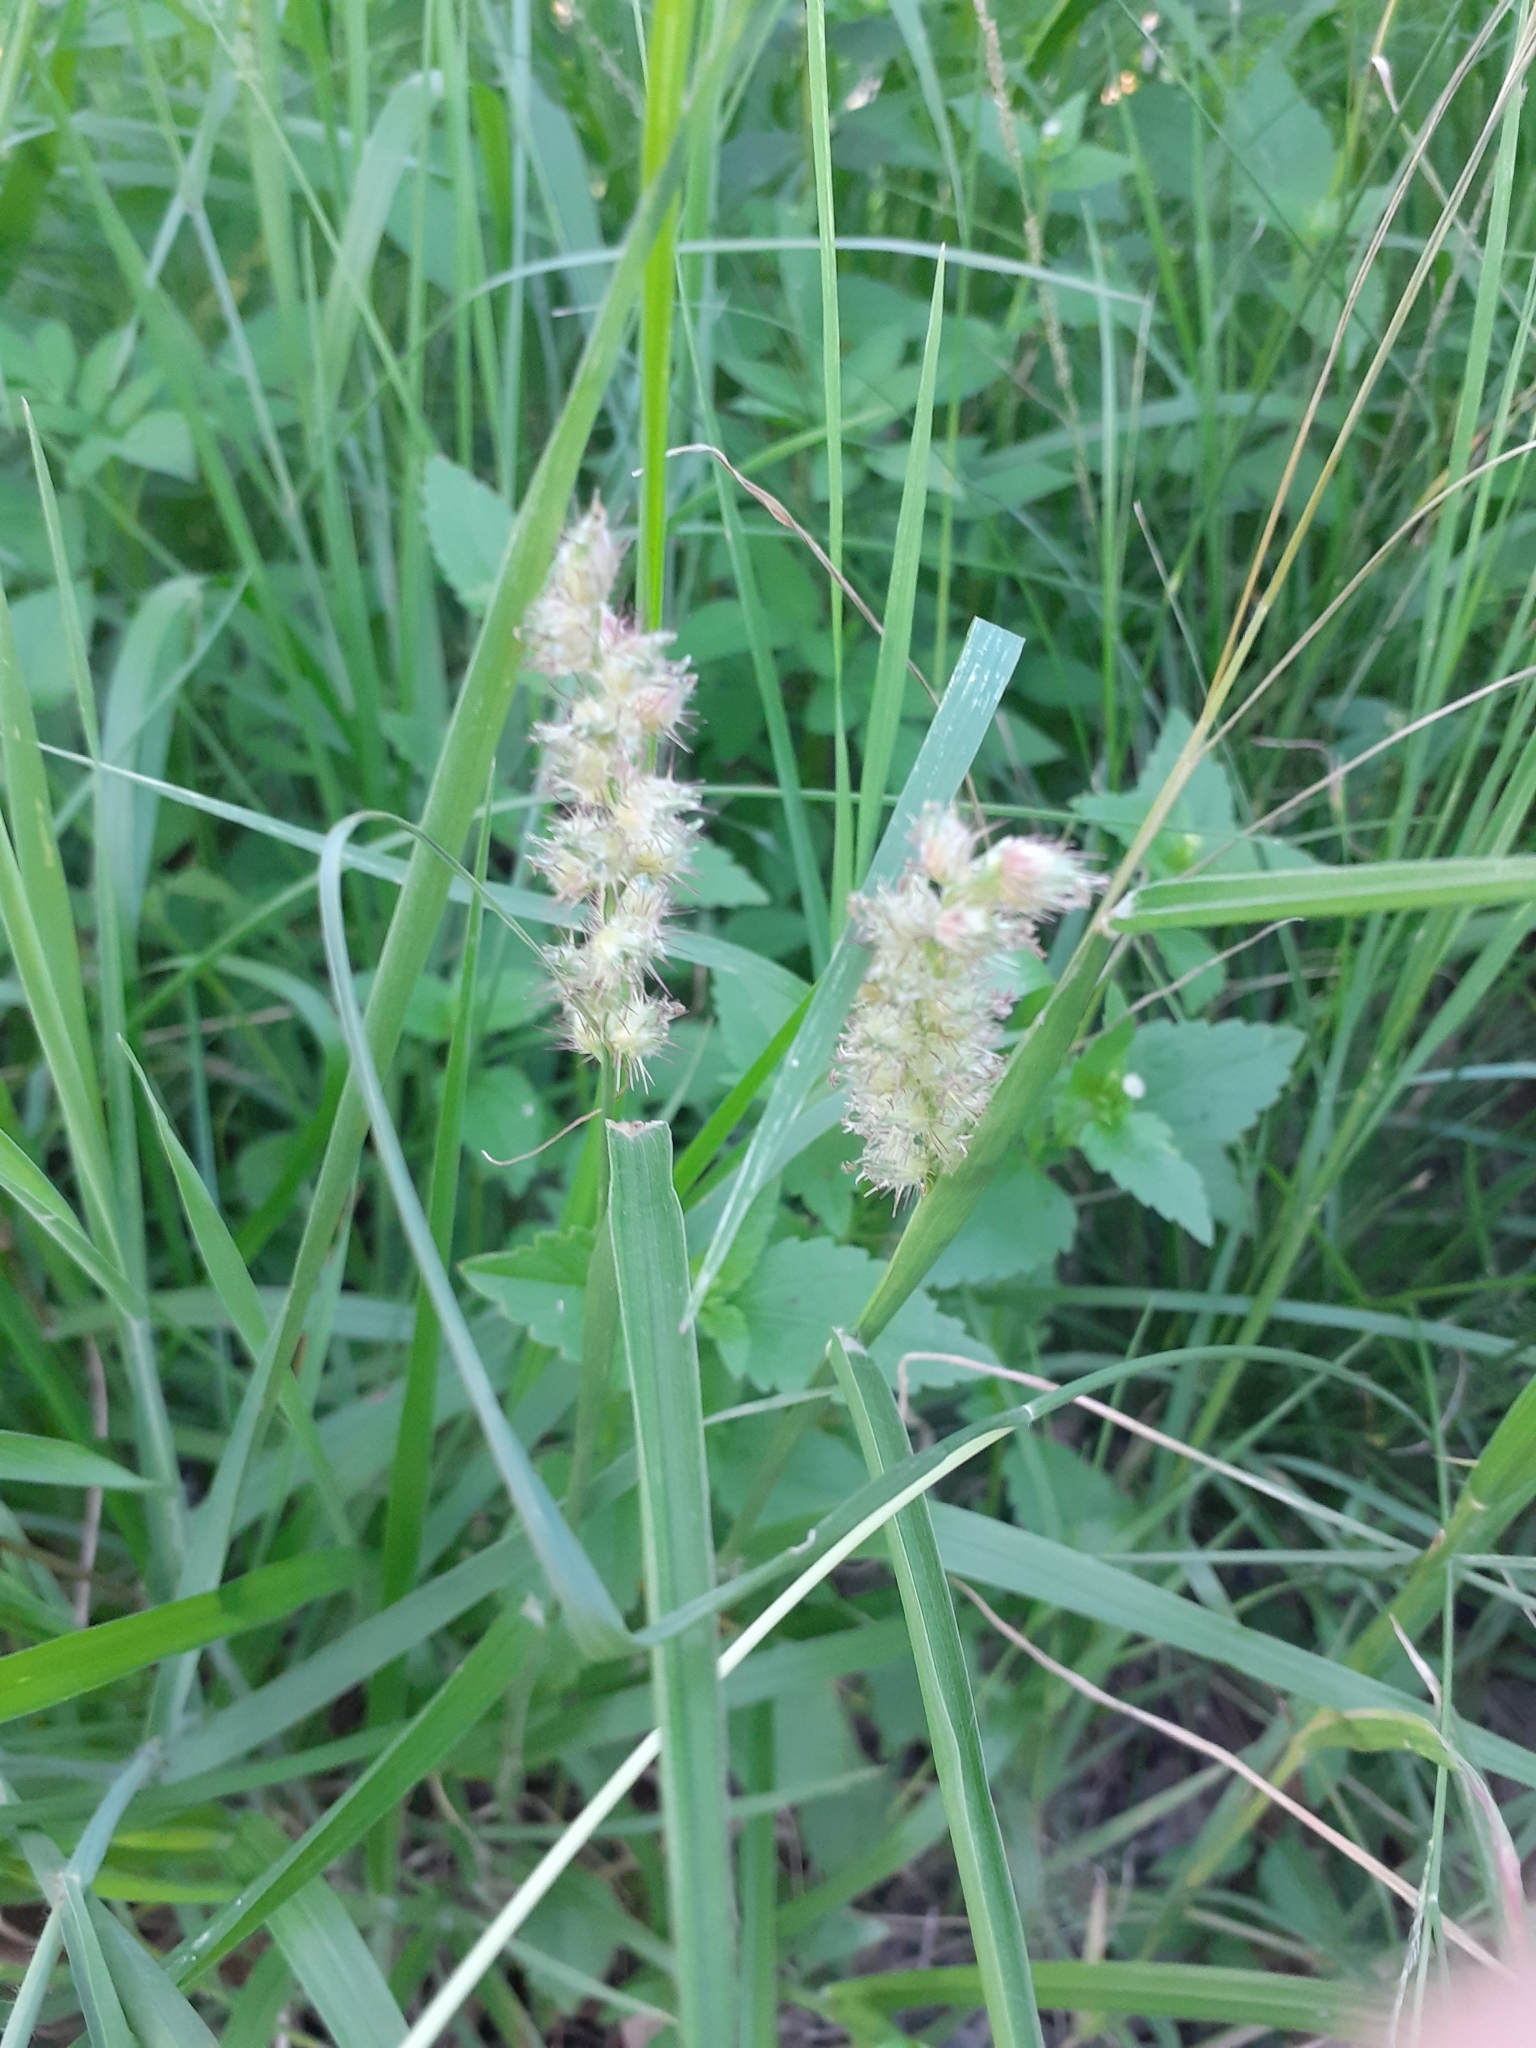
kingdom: Plantae
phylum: Tracheophyta
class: Liliopsida
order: Poales
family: Poaceae
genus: Cenchrus
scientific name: Cenchrus echinatus
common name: Southern sandbur
